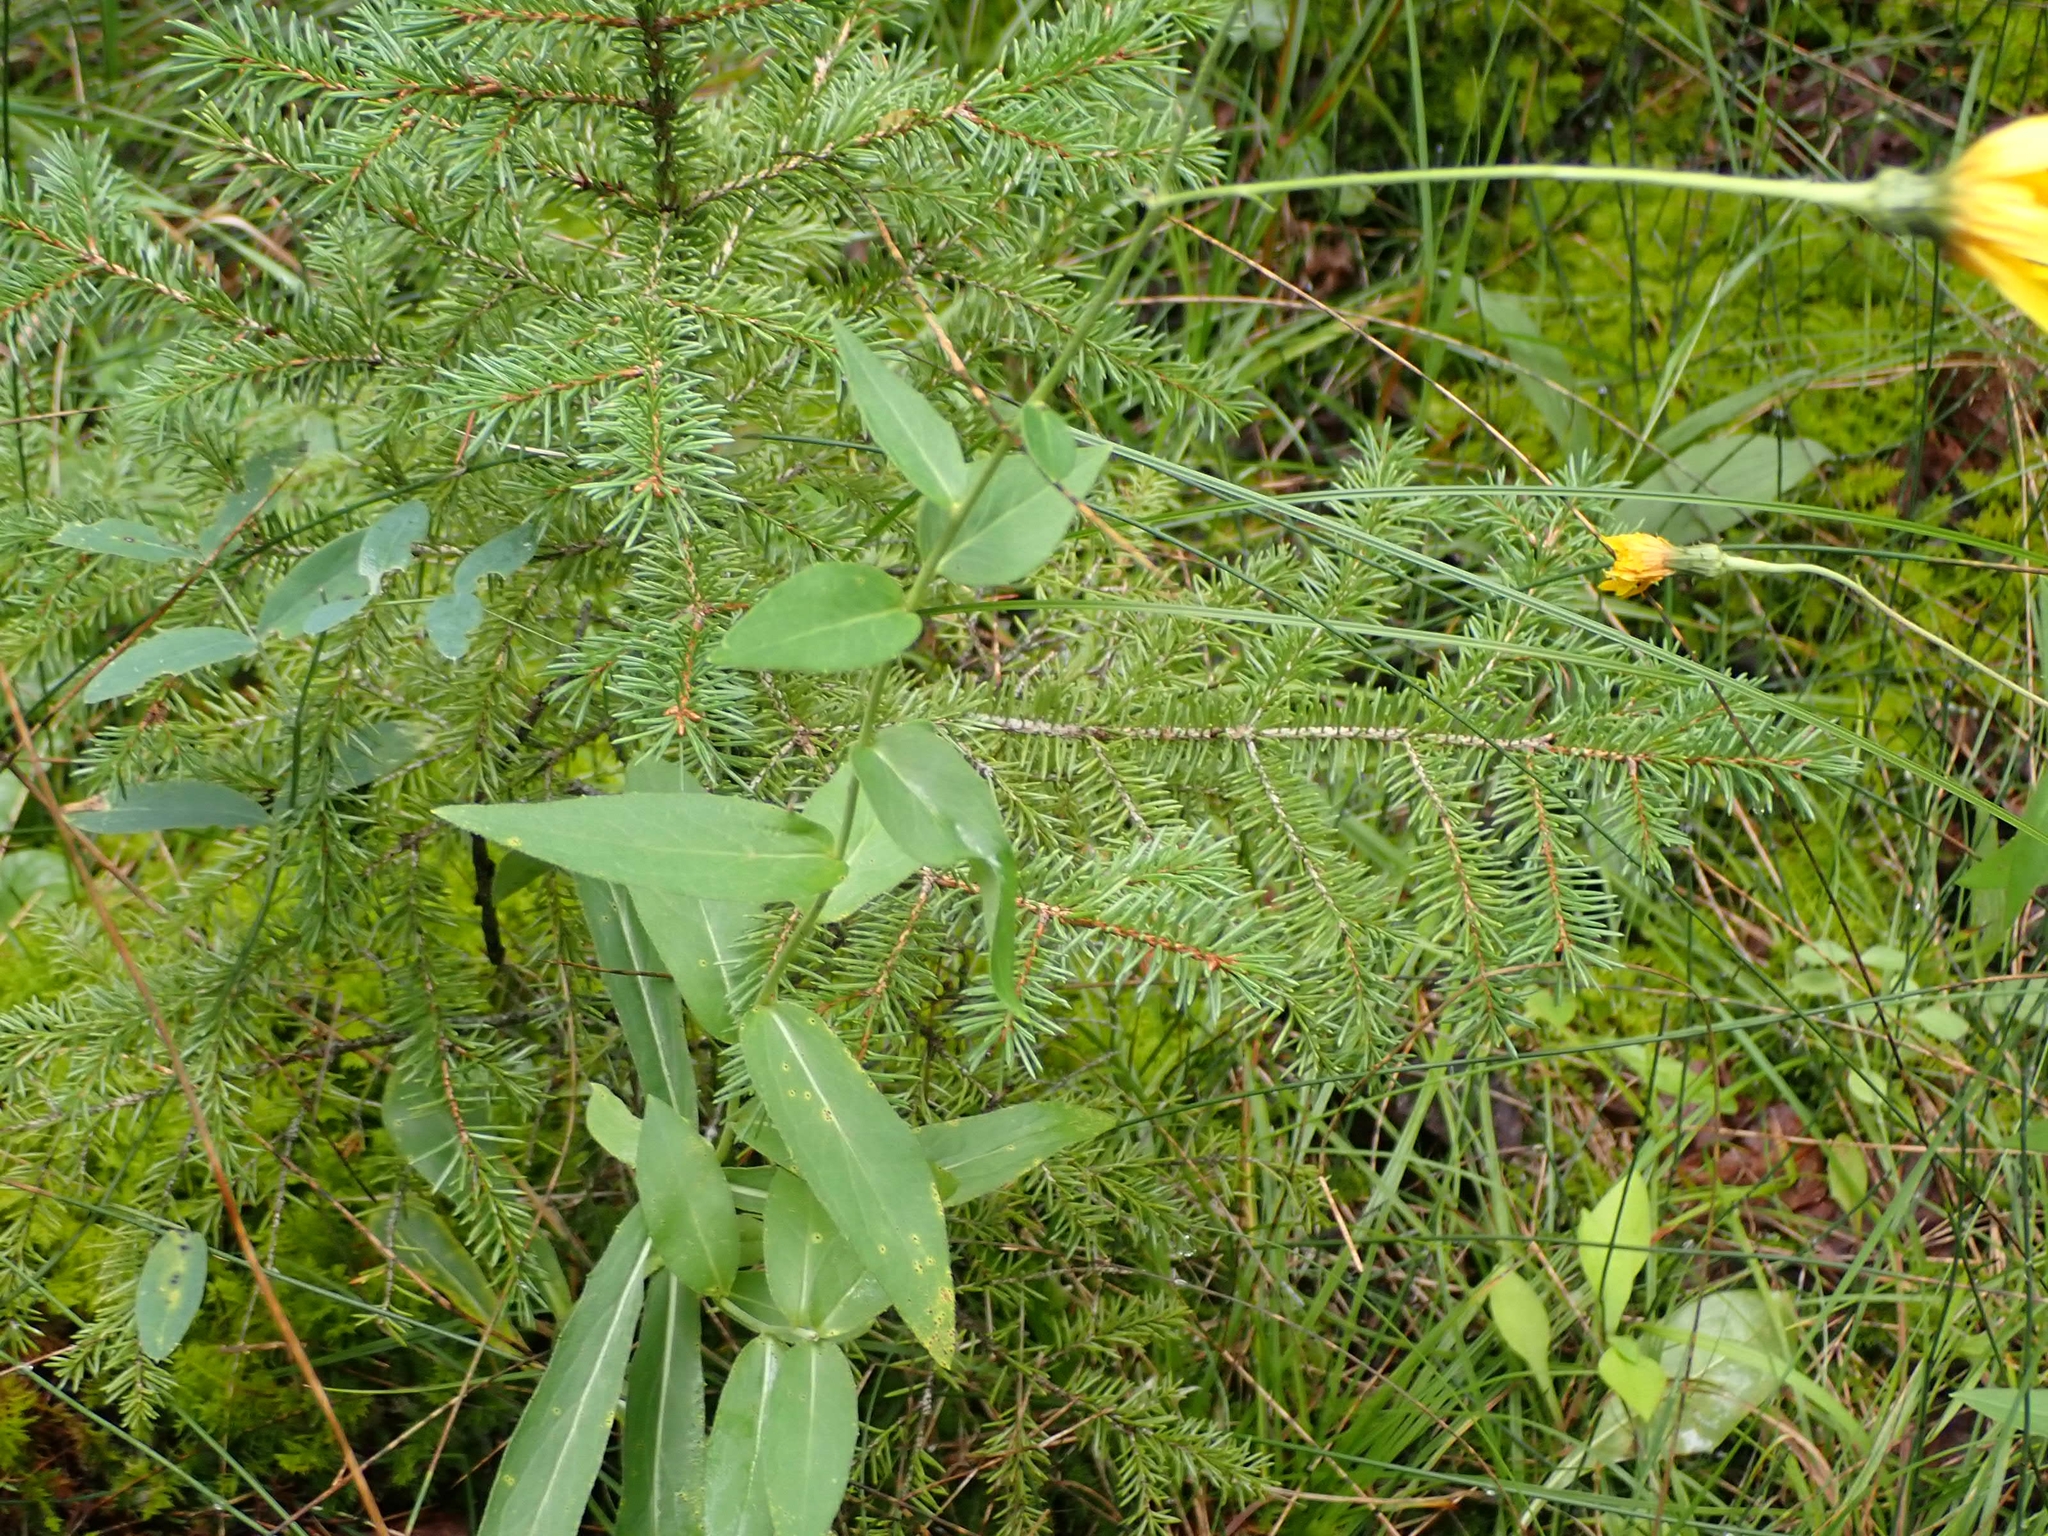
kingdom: Plantae
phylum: Tracheophyta
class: Magnoliopsida
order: Asterales
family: Asteraceae
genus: Hieracium
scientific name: Hieracium umbellatum
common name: Northern hawkweed
